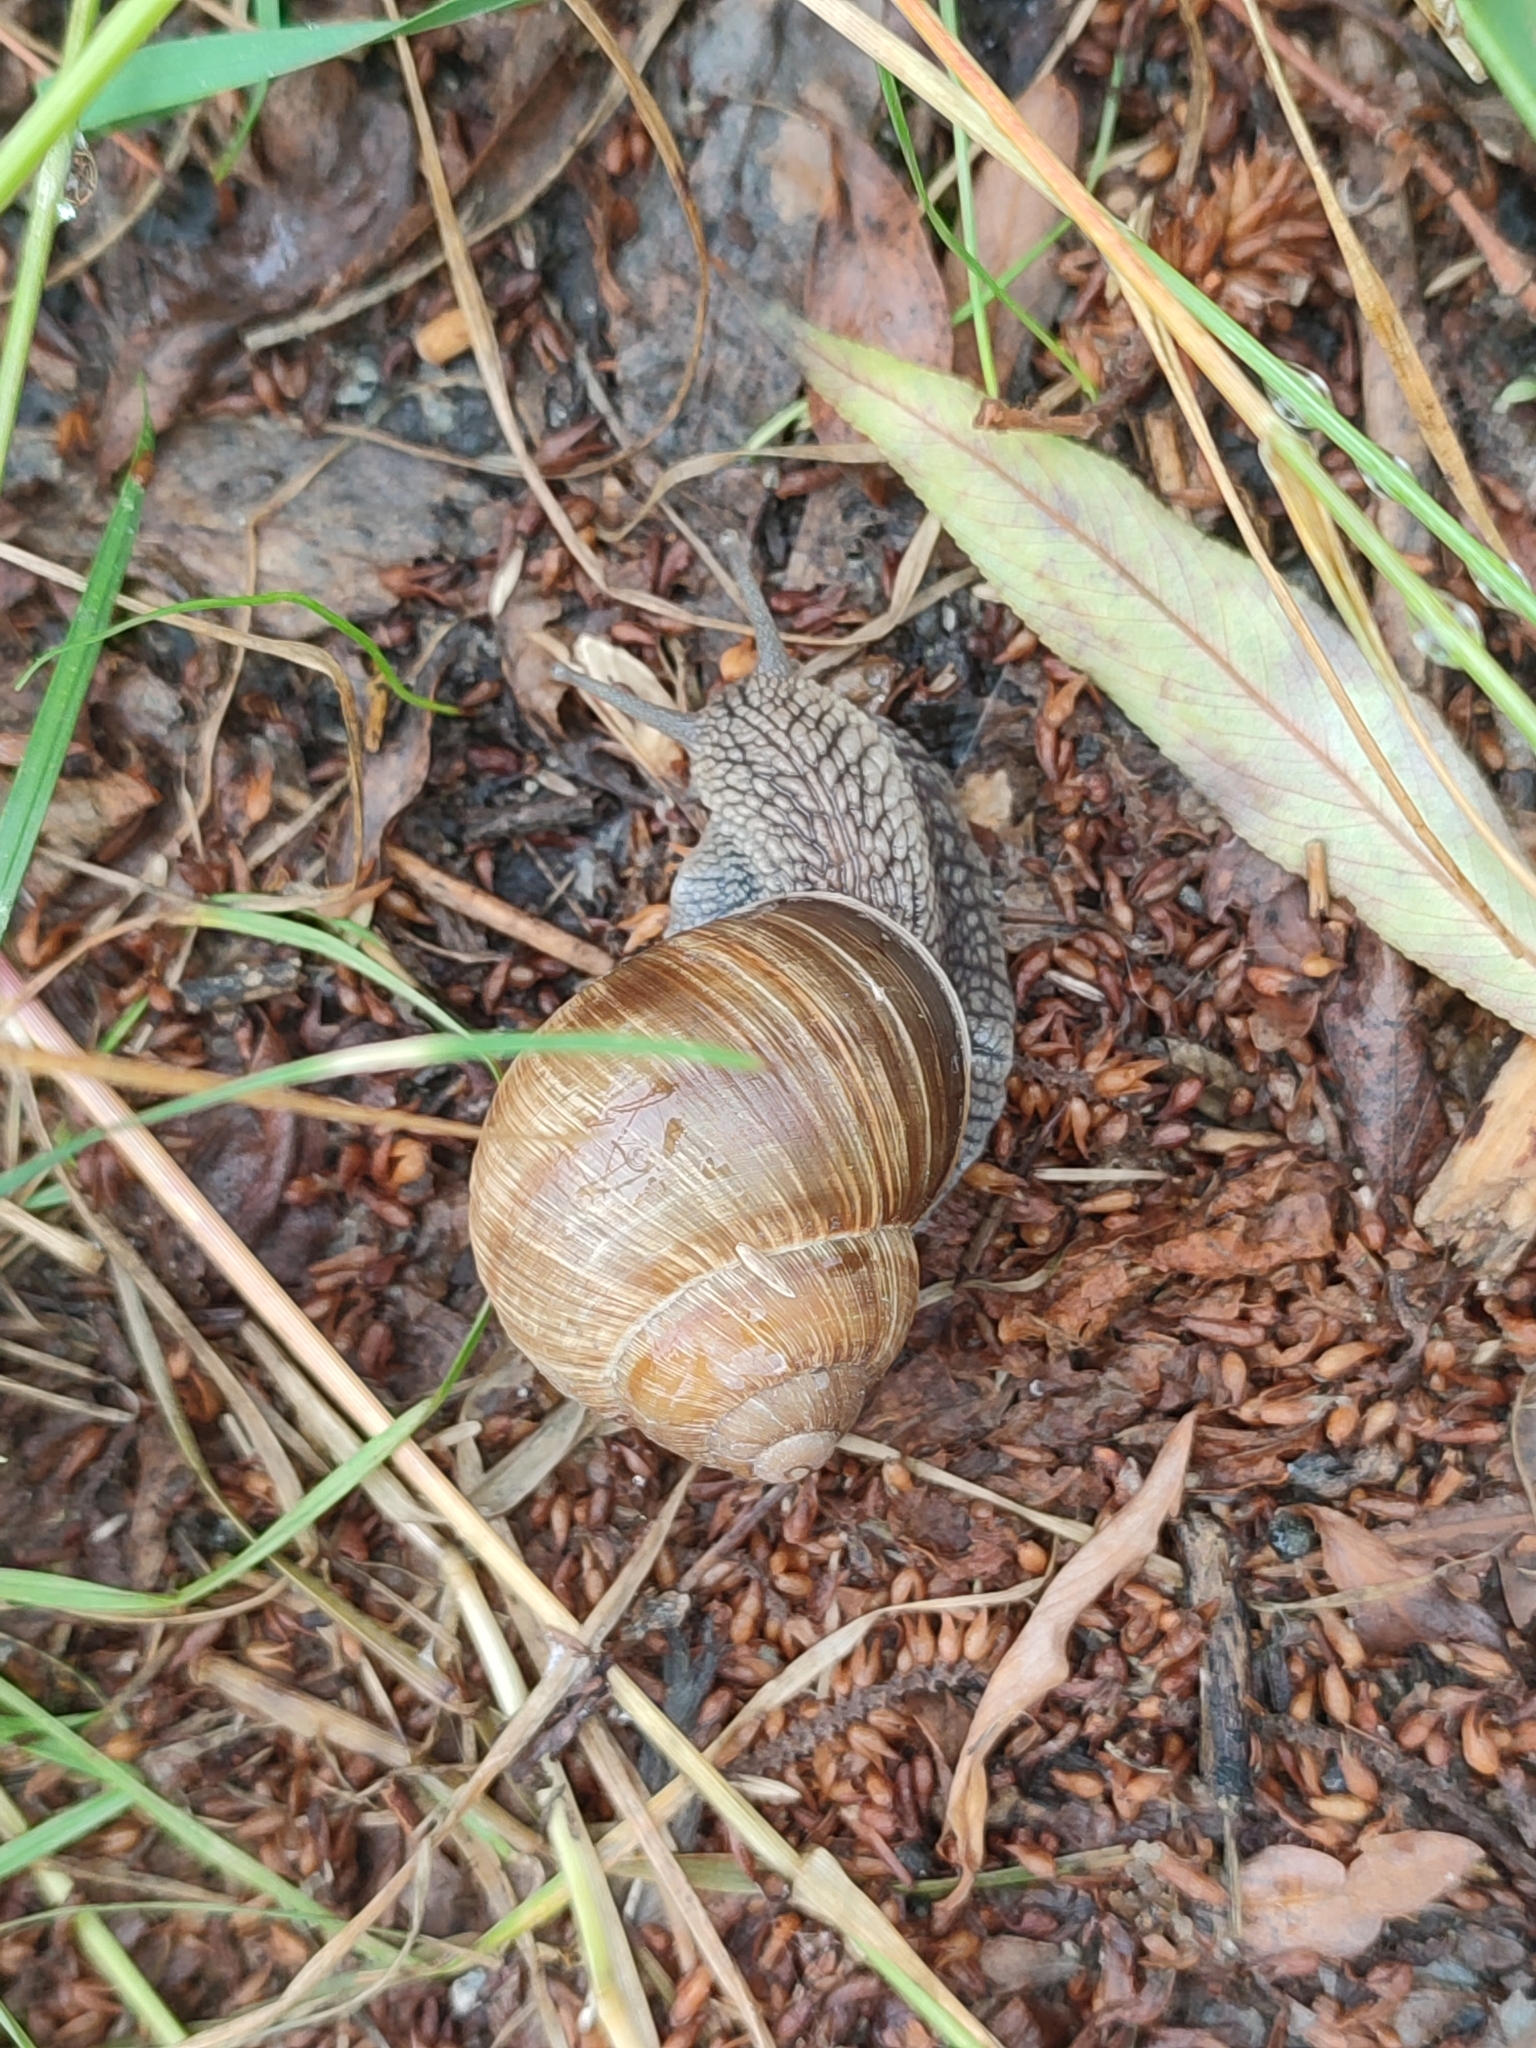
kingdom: Animalia
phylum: Mollusca
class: Gastropoda
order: Stylommatophora
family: Helicidae
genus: Helix
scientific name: Helix pomatia
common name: Roman snail
